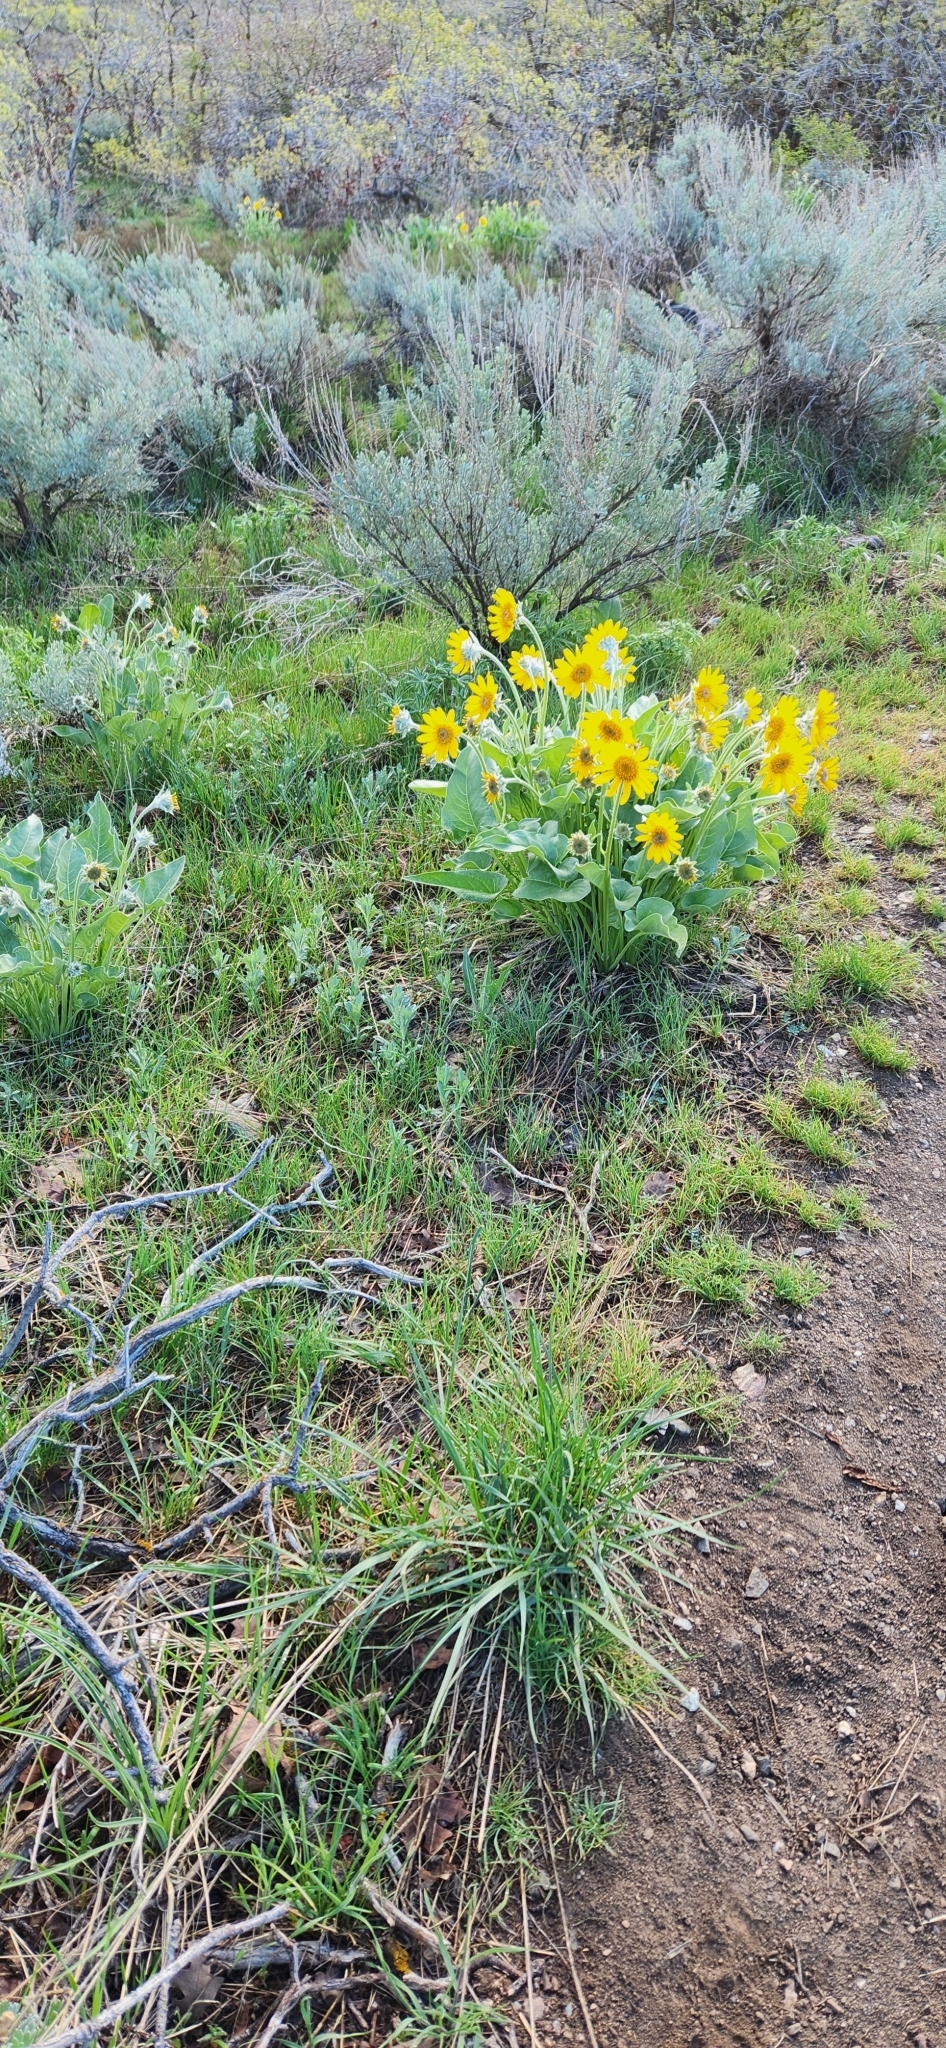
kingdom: Plantae
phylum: Tracheophyta
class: Magnoliopsida
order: Asterales
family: Asteraceae
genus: Wyethia
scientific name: Wyethia sagittata
